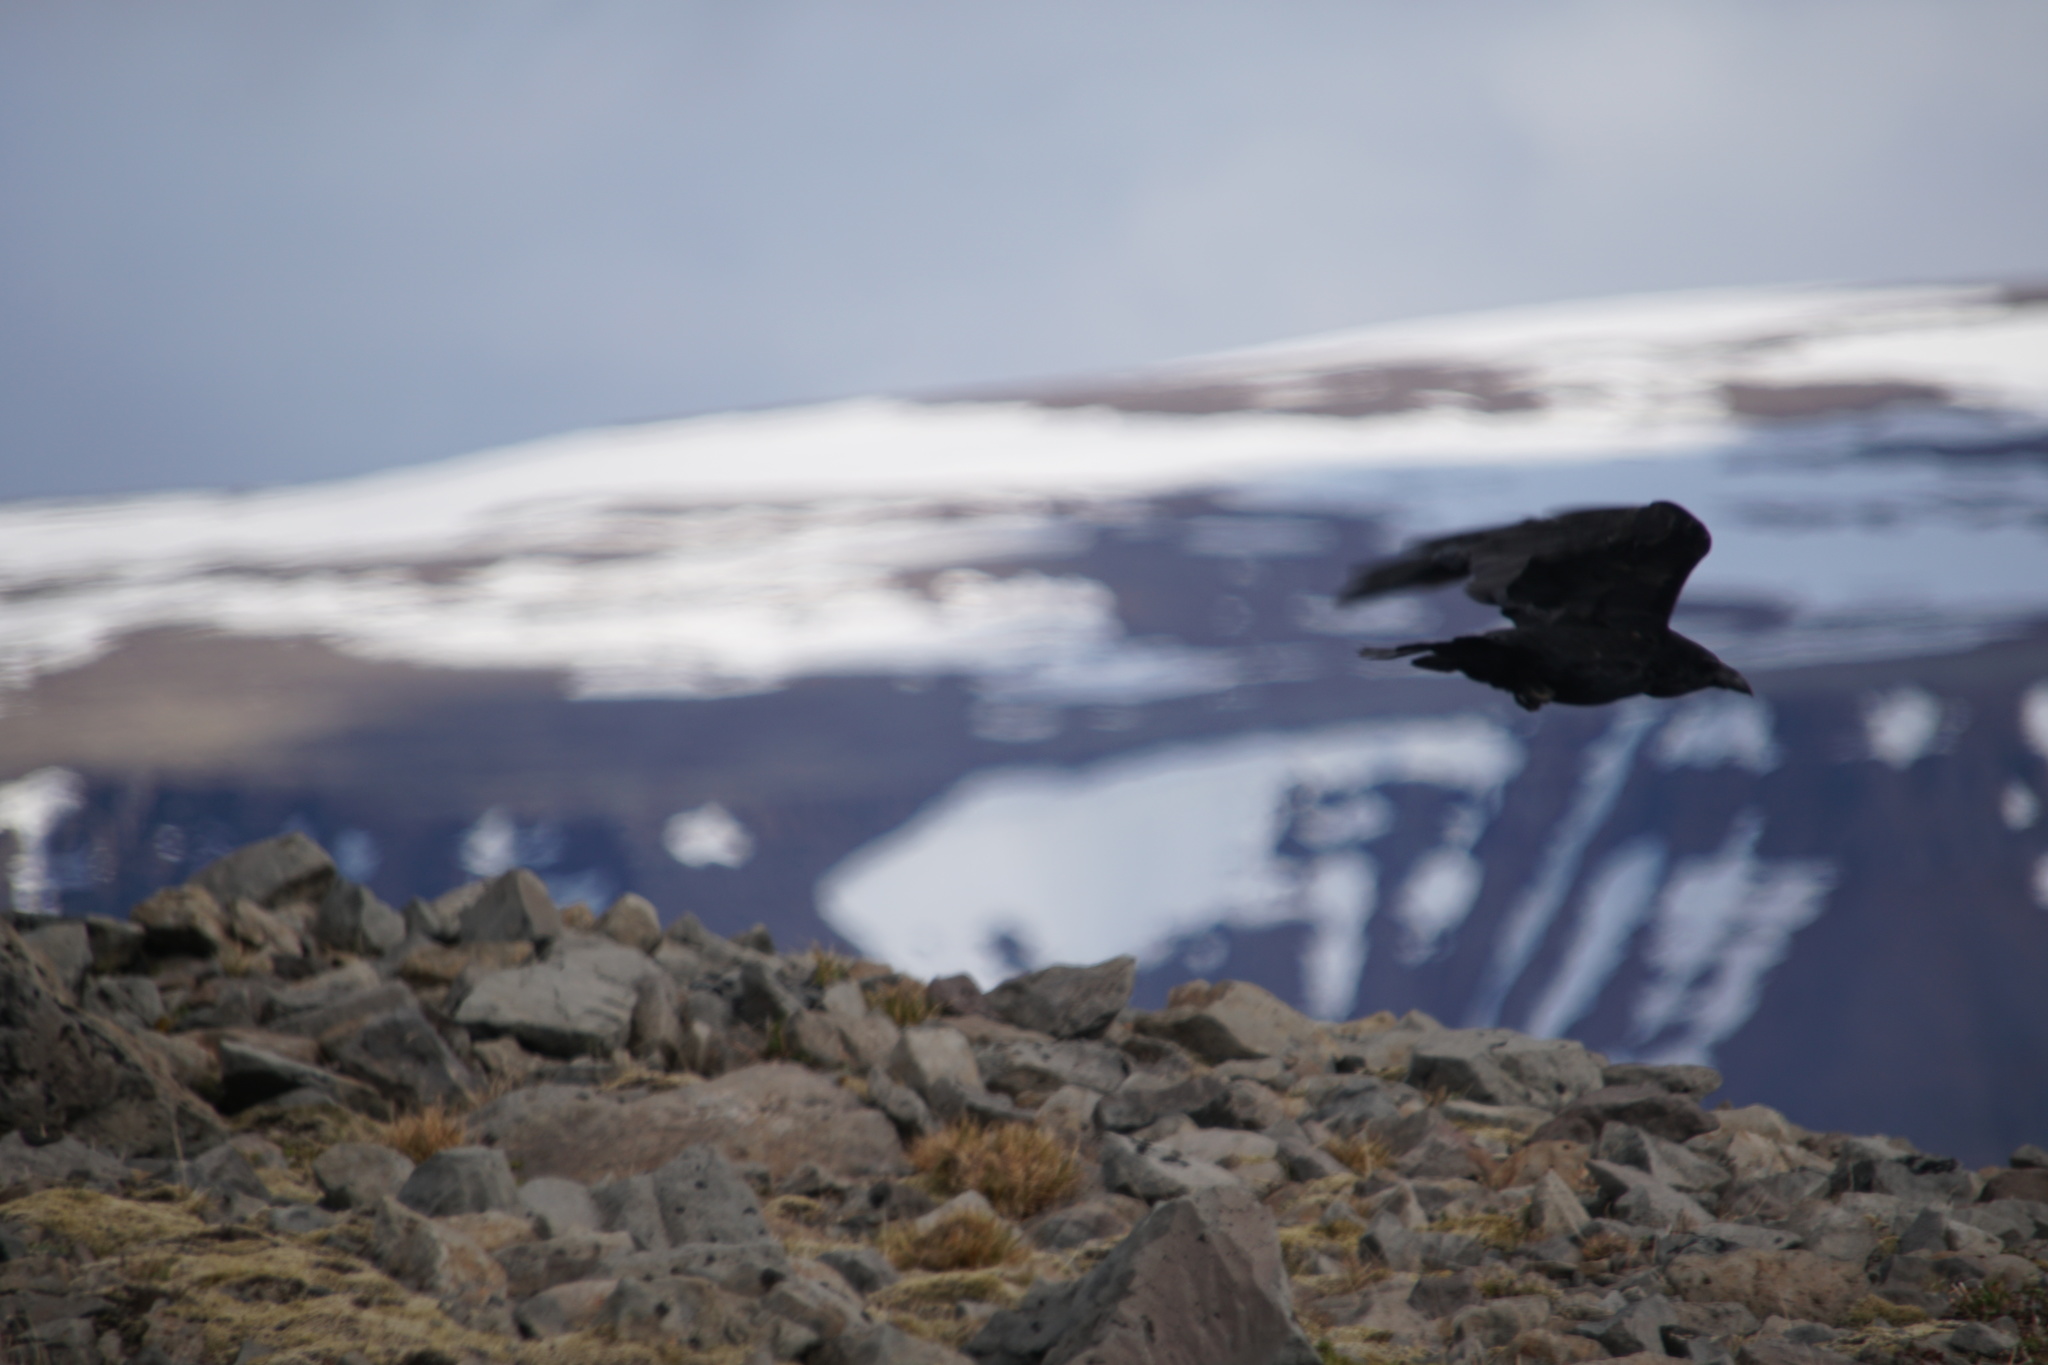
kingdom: Animalia
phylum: Chordata
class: Aves
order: Passeriformes
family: Corvidae
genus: Corvus
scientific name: Corvus corax
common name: Common raven
